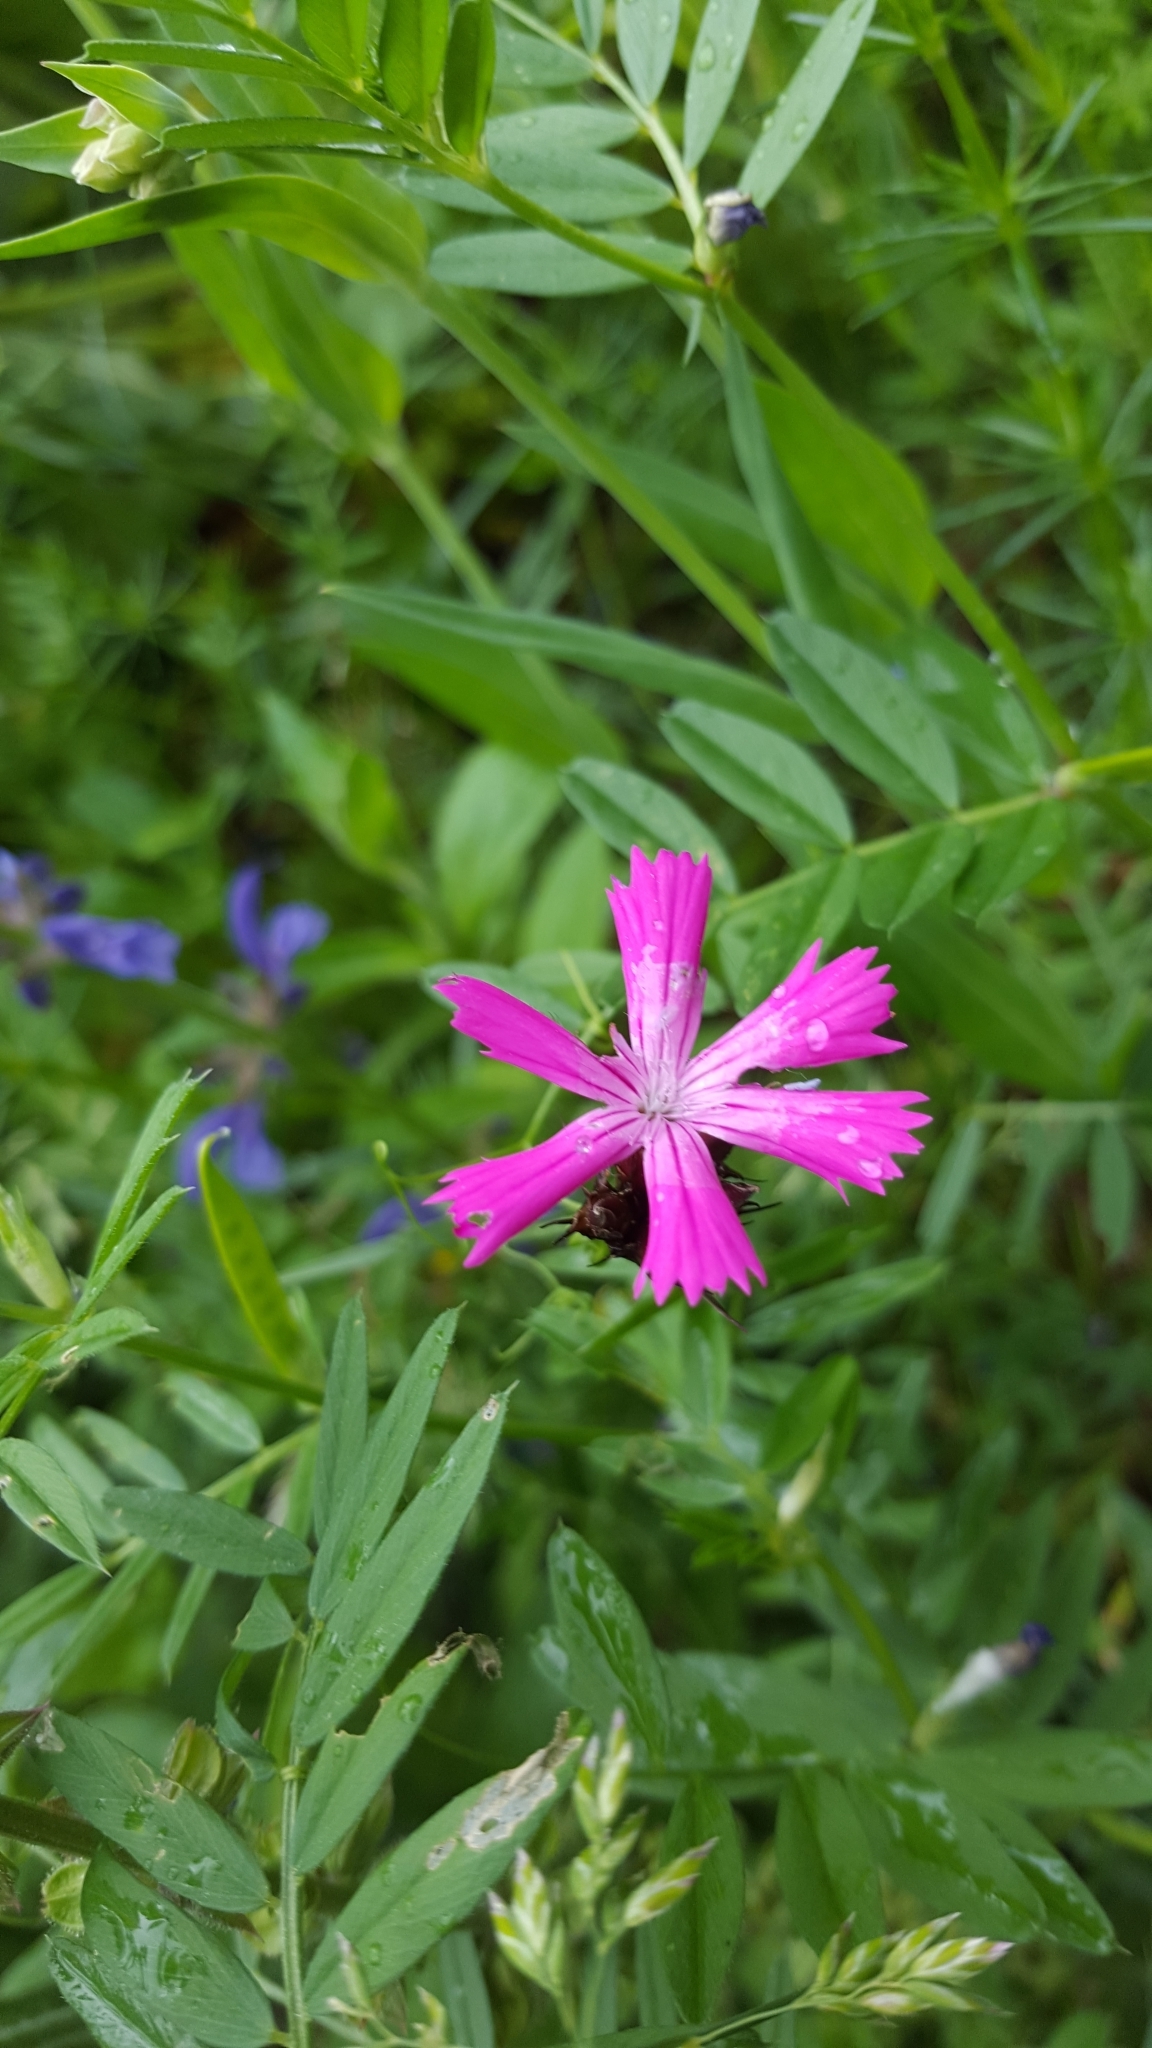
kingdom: Plantae
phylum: Tracheophyta
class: Magnoliopsida
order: Caryophyllales
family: Caryophyllaceae
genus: Dianthus
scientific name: Dianthus carthusianorum
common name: Carthusian pink
